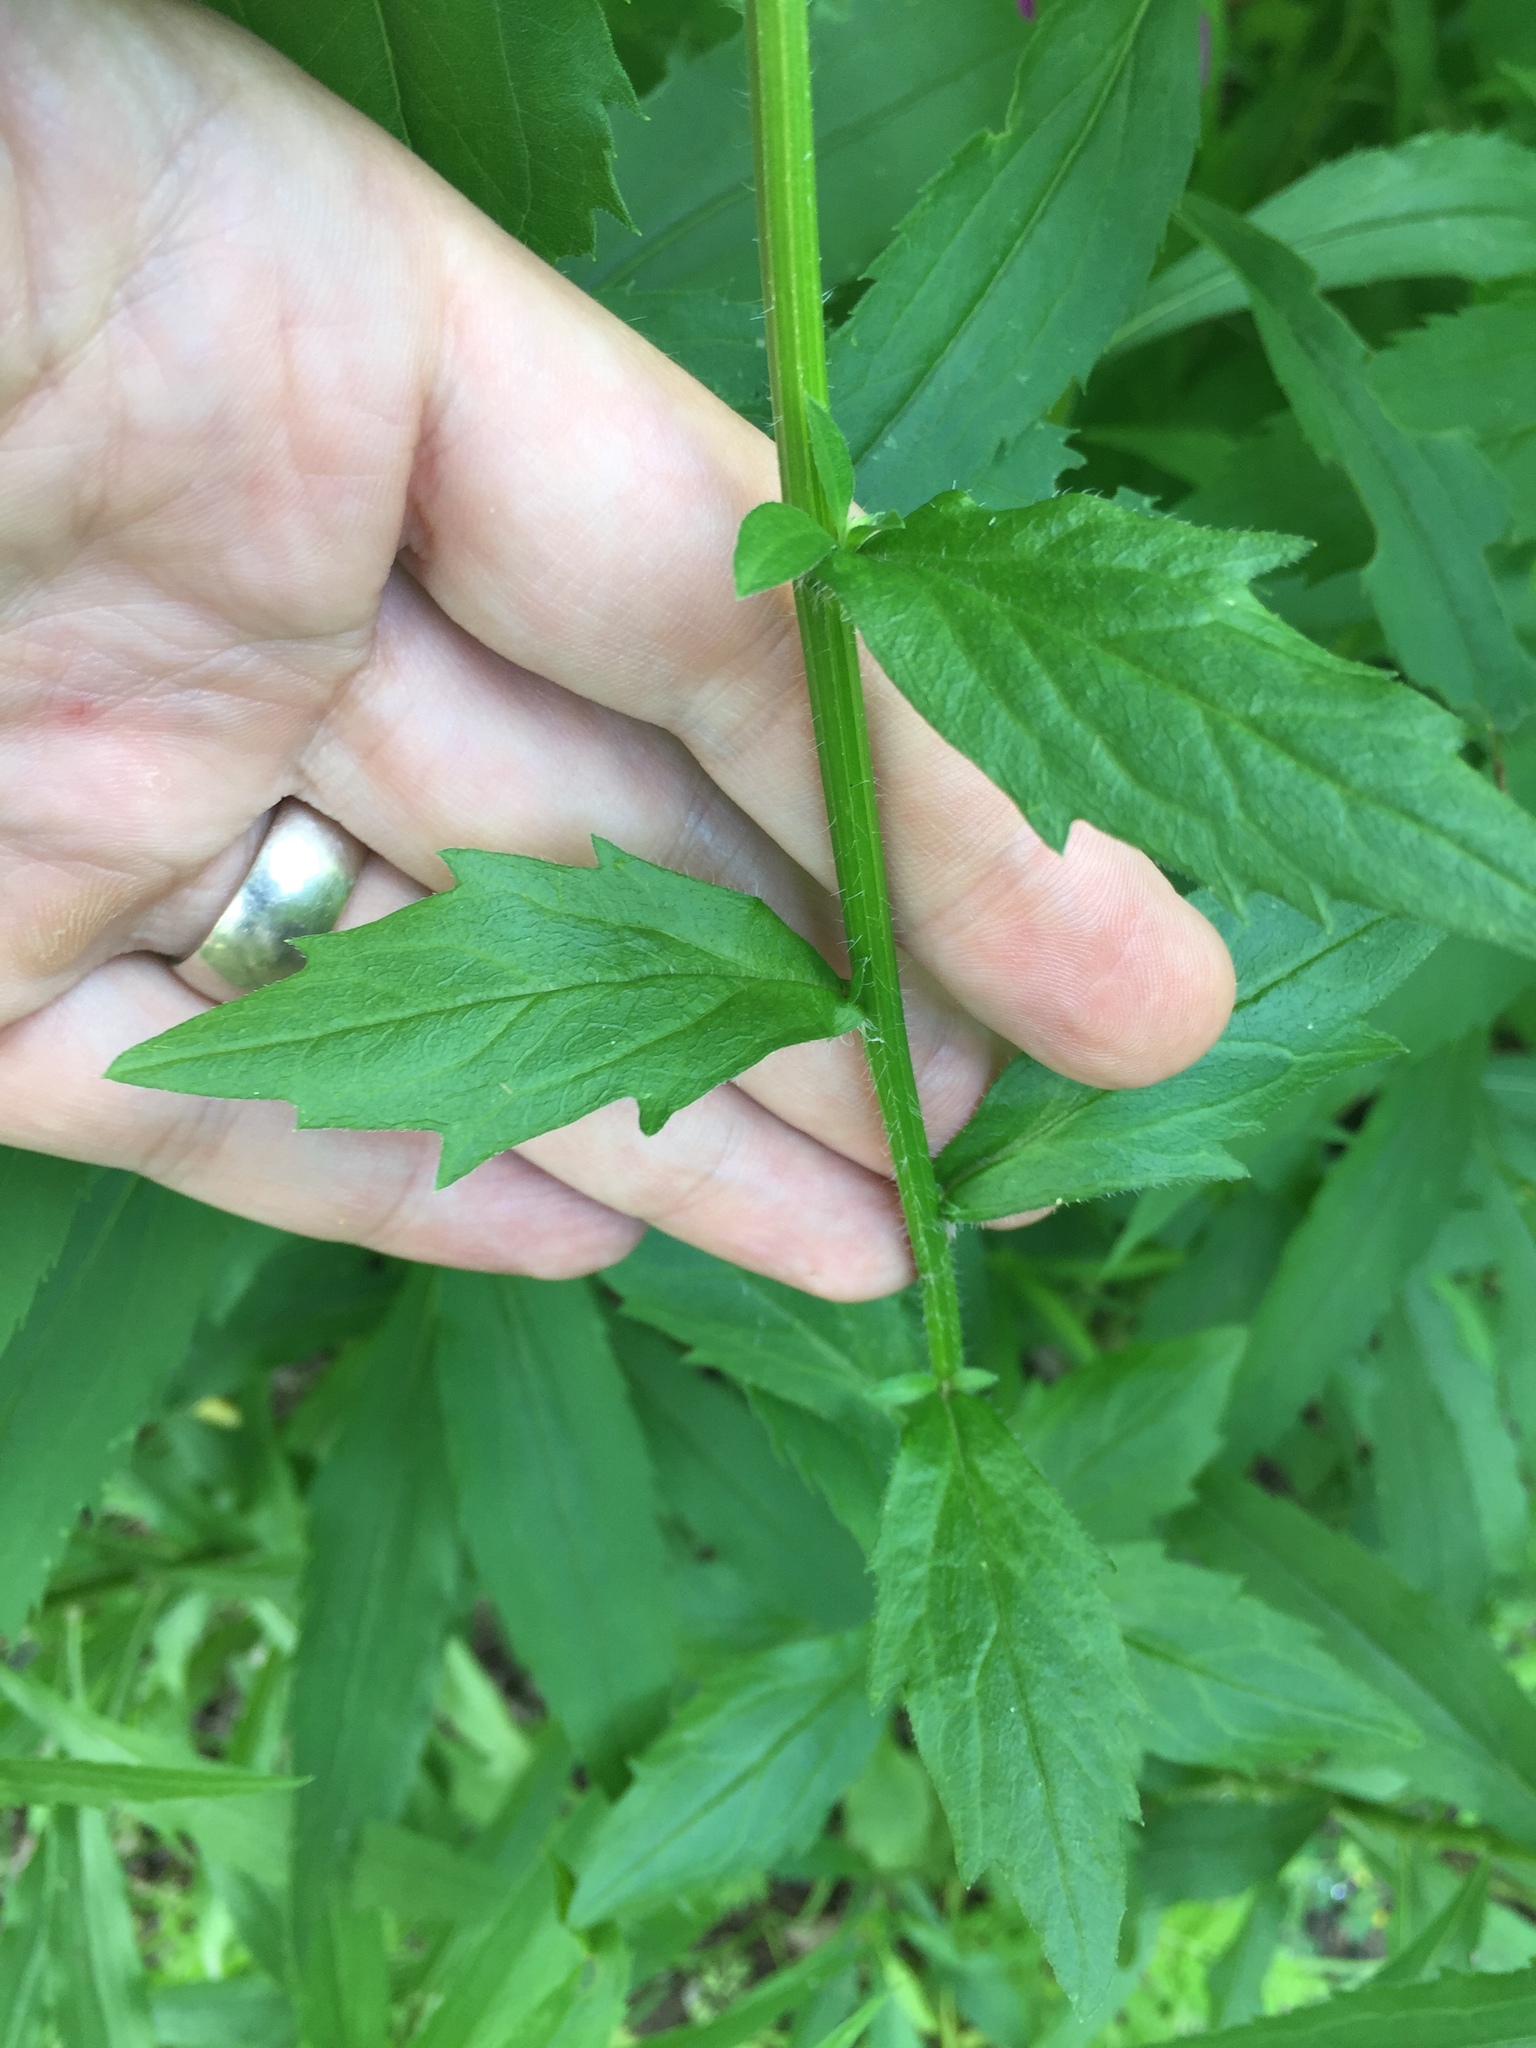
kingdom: Plantae
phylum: Tracheophyta
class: Magnoliopsida
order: Asterales
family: Asteraceae
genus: Erigeron
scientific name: Erigeron annuus
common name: Tall fleabane
